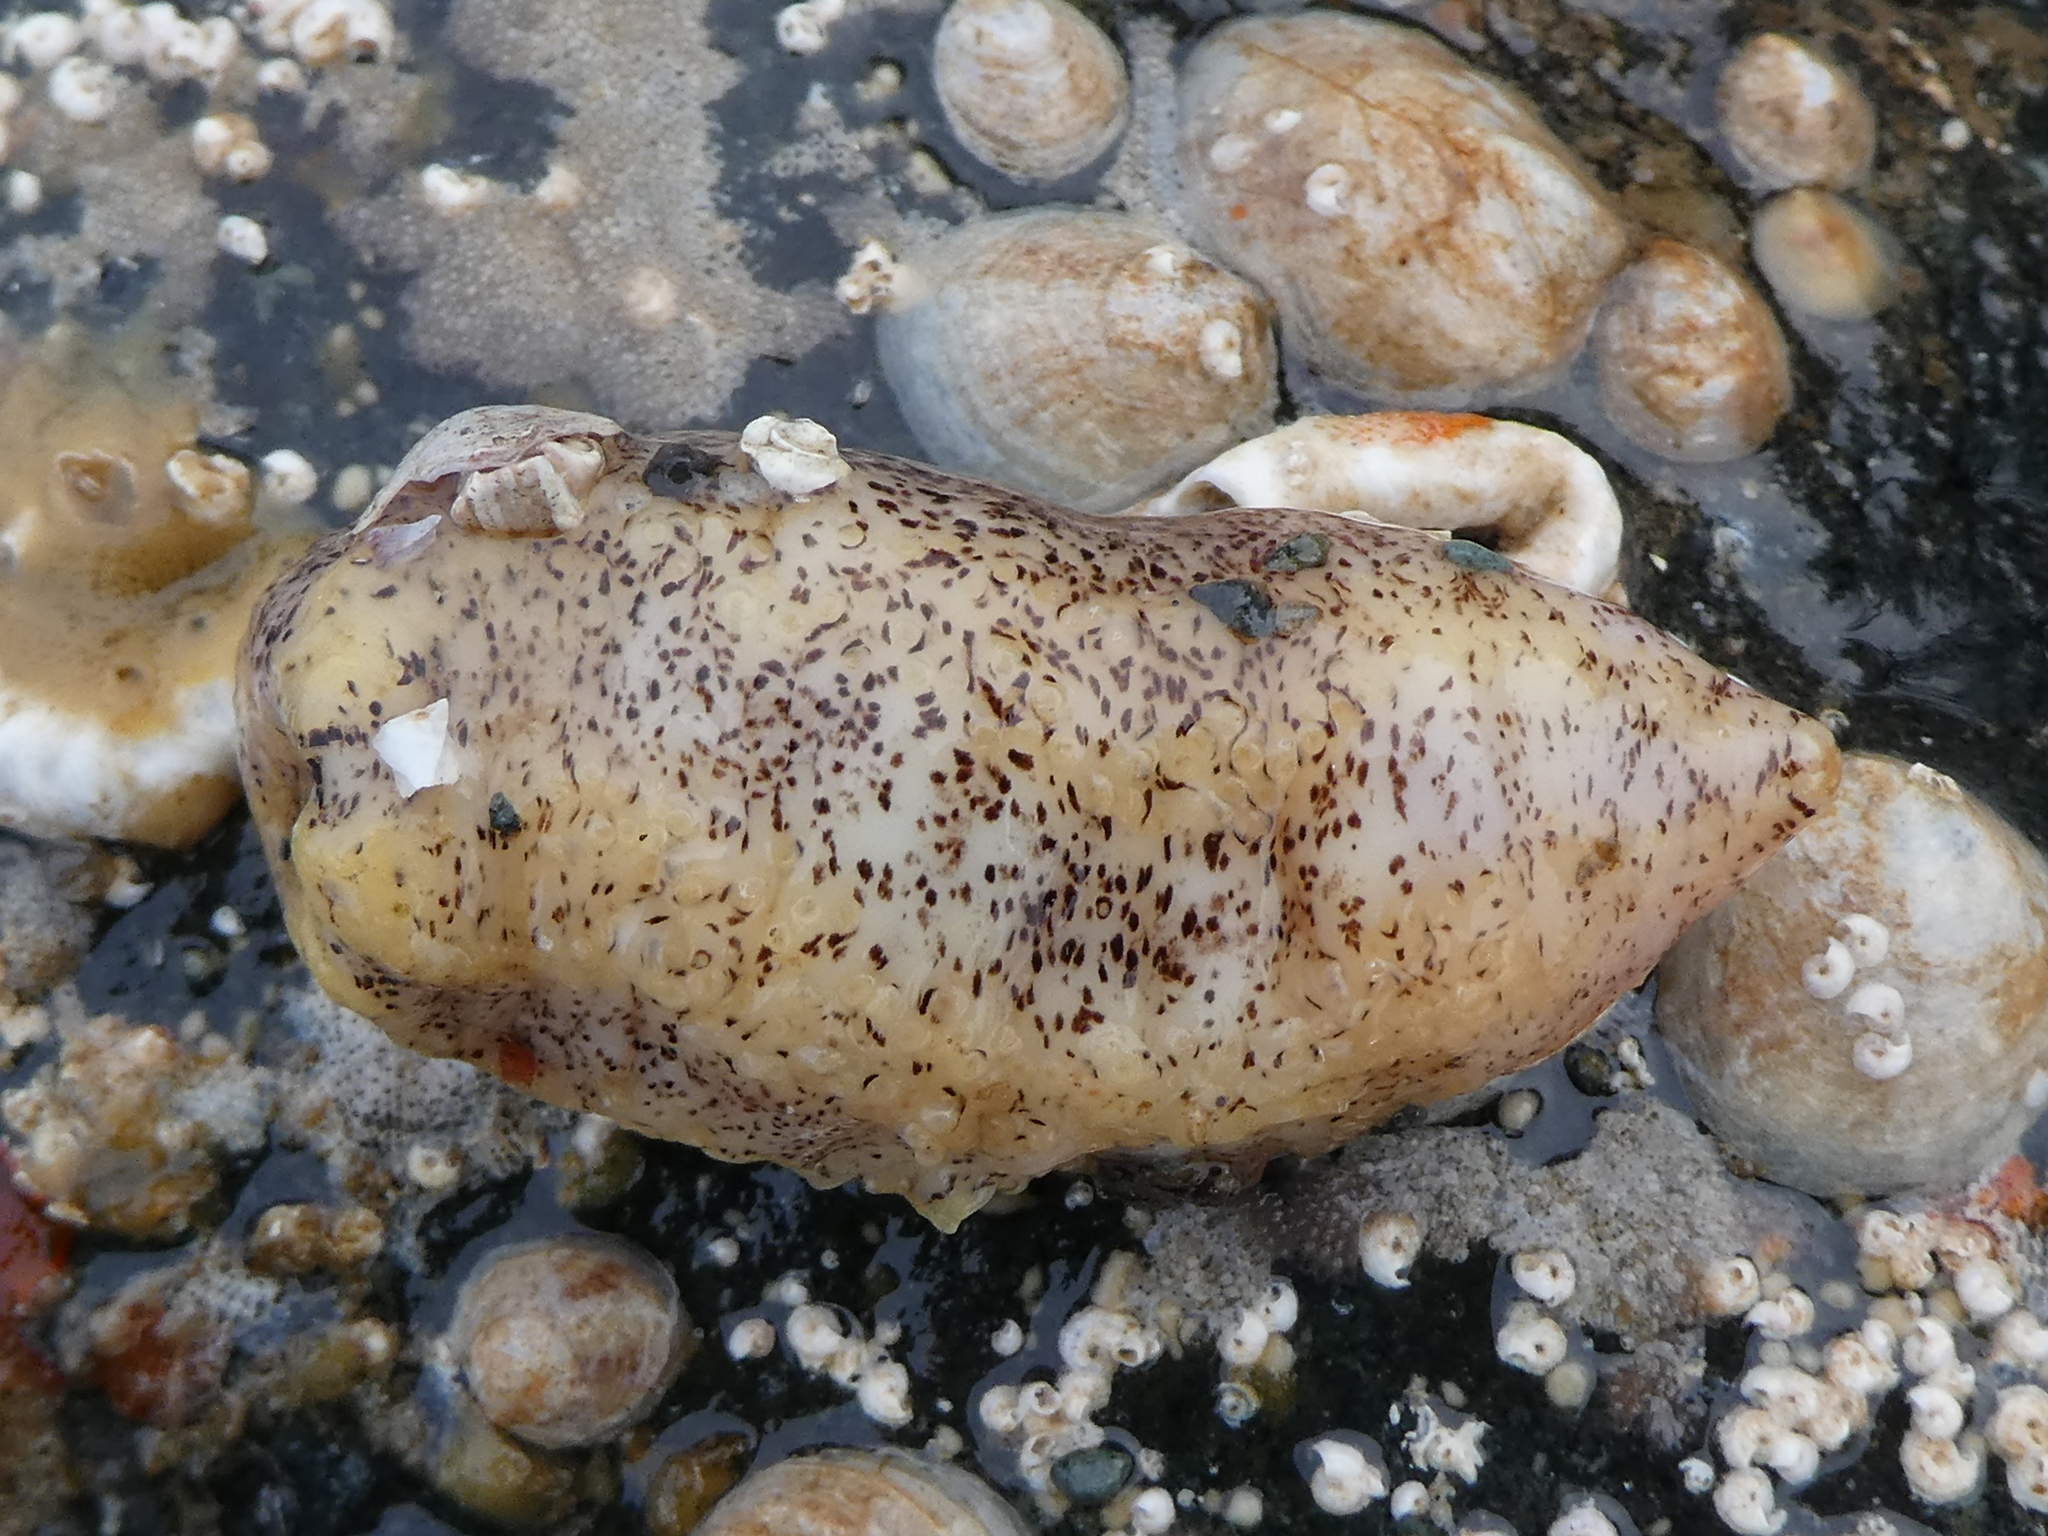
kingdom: Animalia
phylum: Echinodermata
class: Holothuroidea
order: Dendrochirotida
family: Cucumariidae
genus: Cucumaria
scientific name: Cucumaria piperata
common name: Peppered sea cucumber
